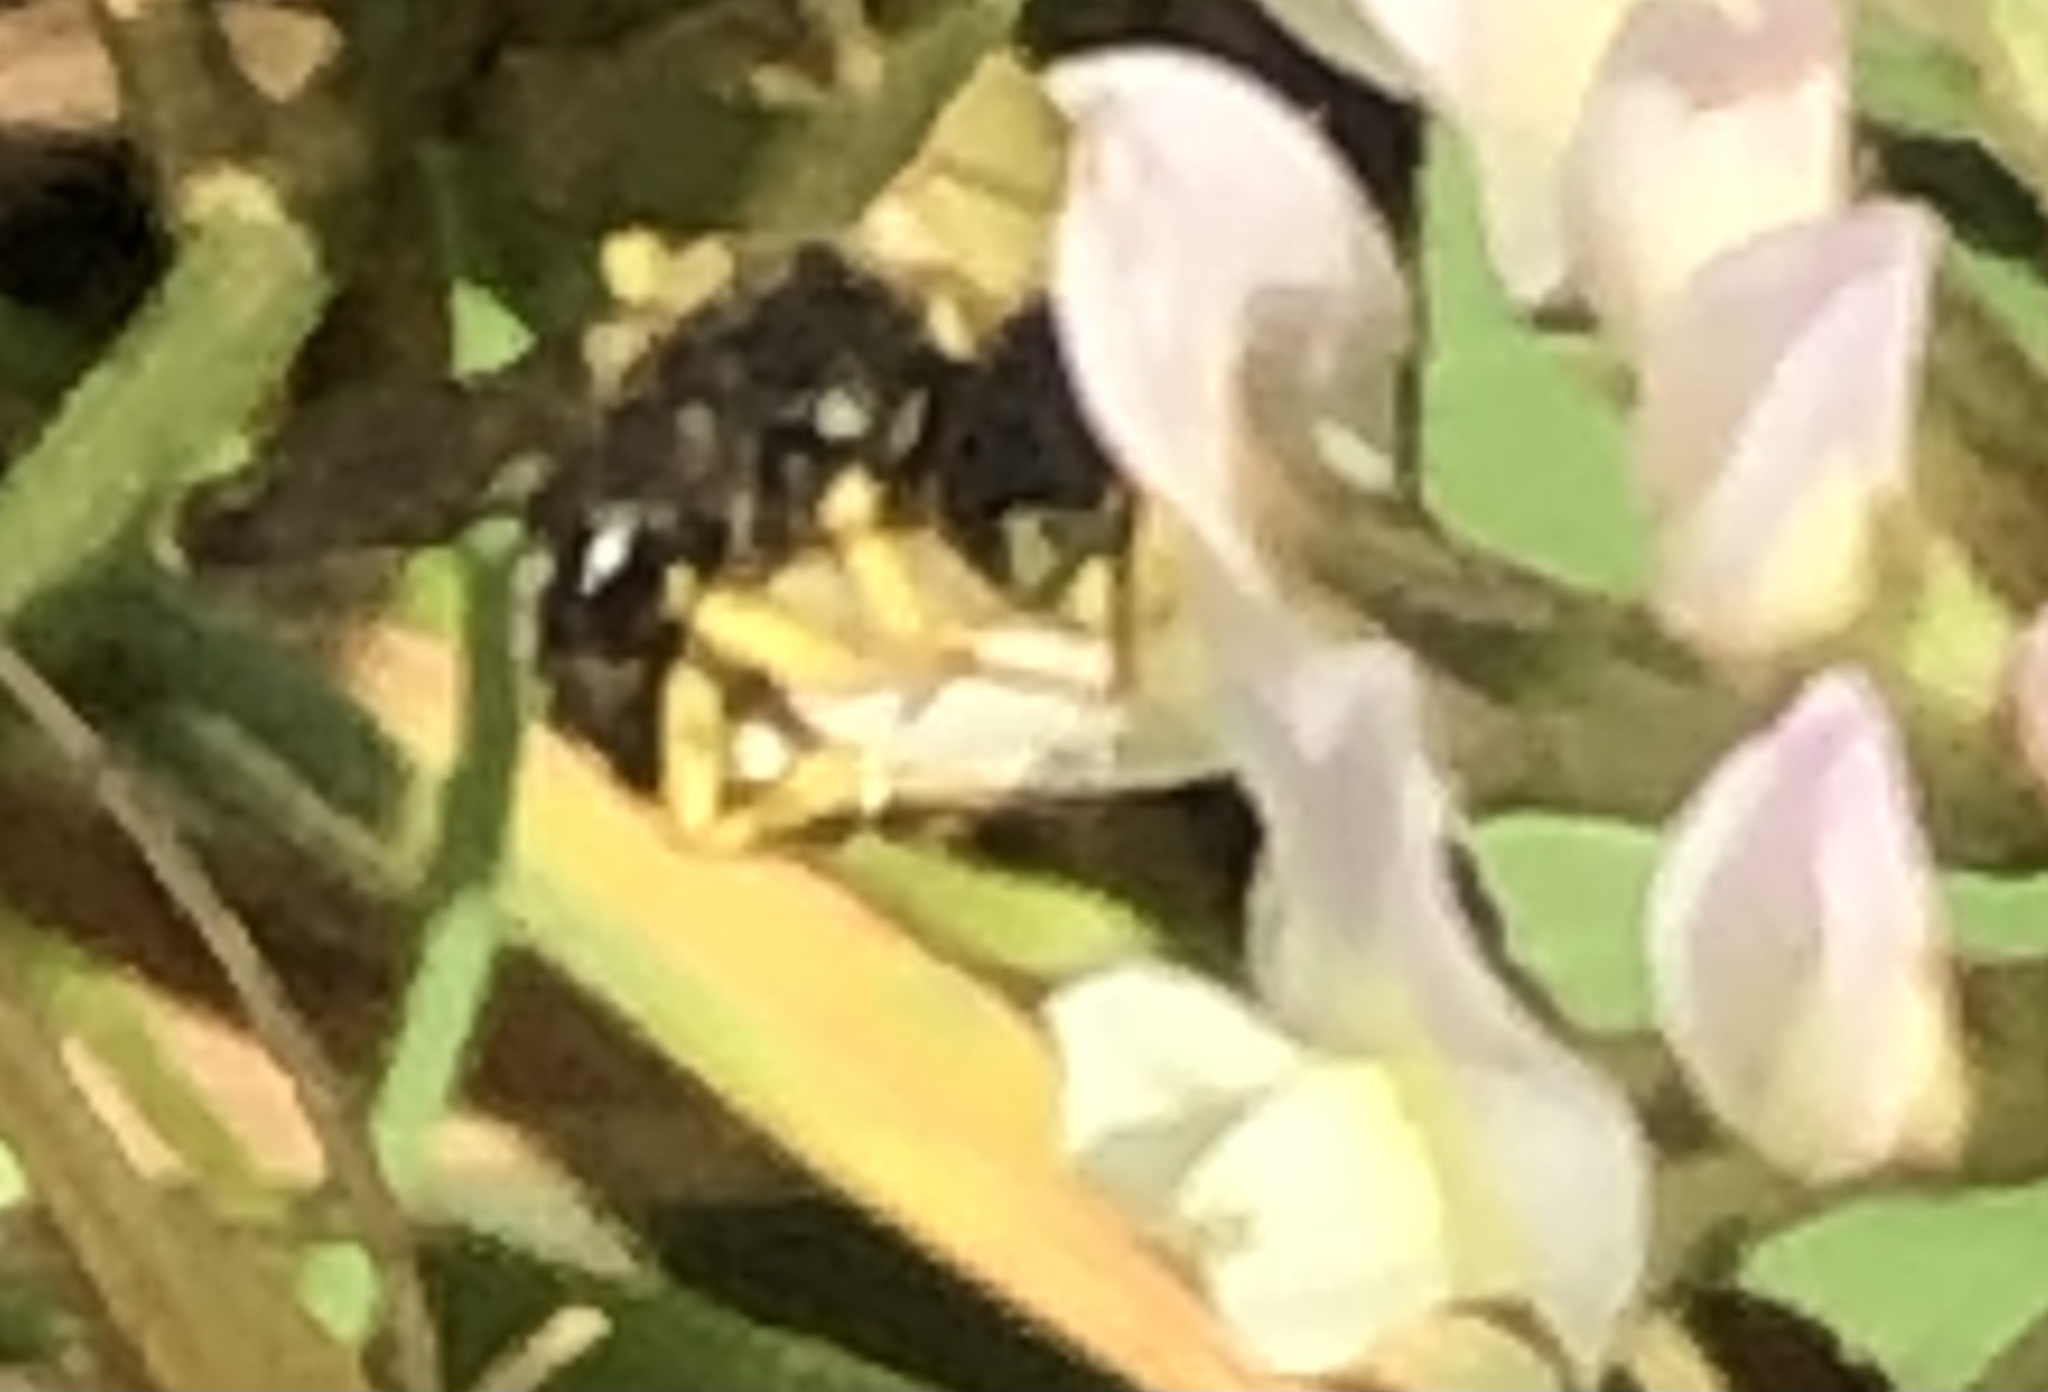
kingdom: Animalia
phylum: Arthropoda
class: Insecta
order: Hymenoptera
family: Andrenidae
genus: Calliopsis
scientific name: Calliopsis andreniformis
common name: Eastern calliopsis bee
